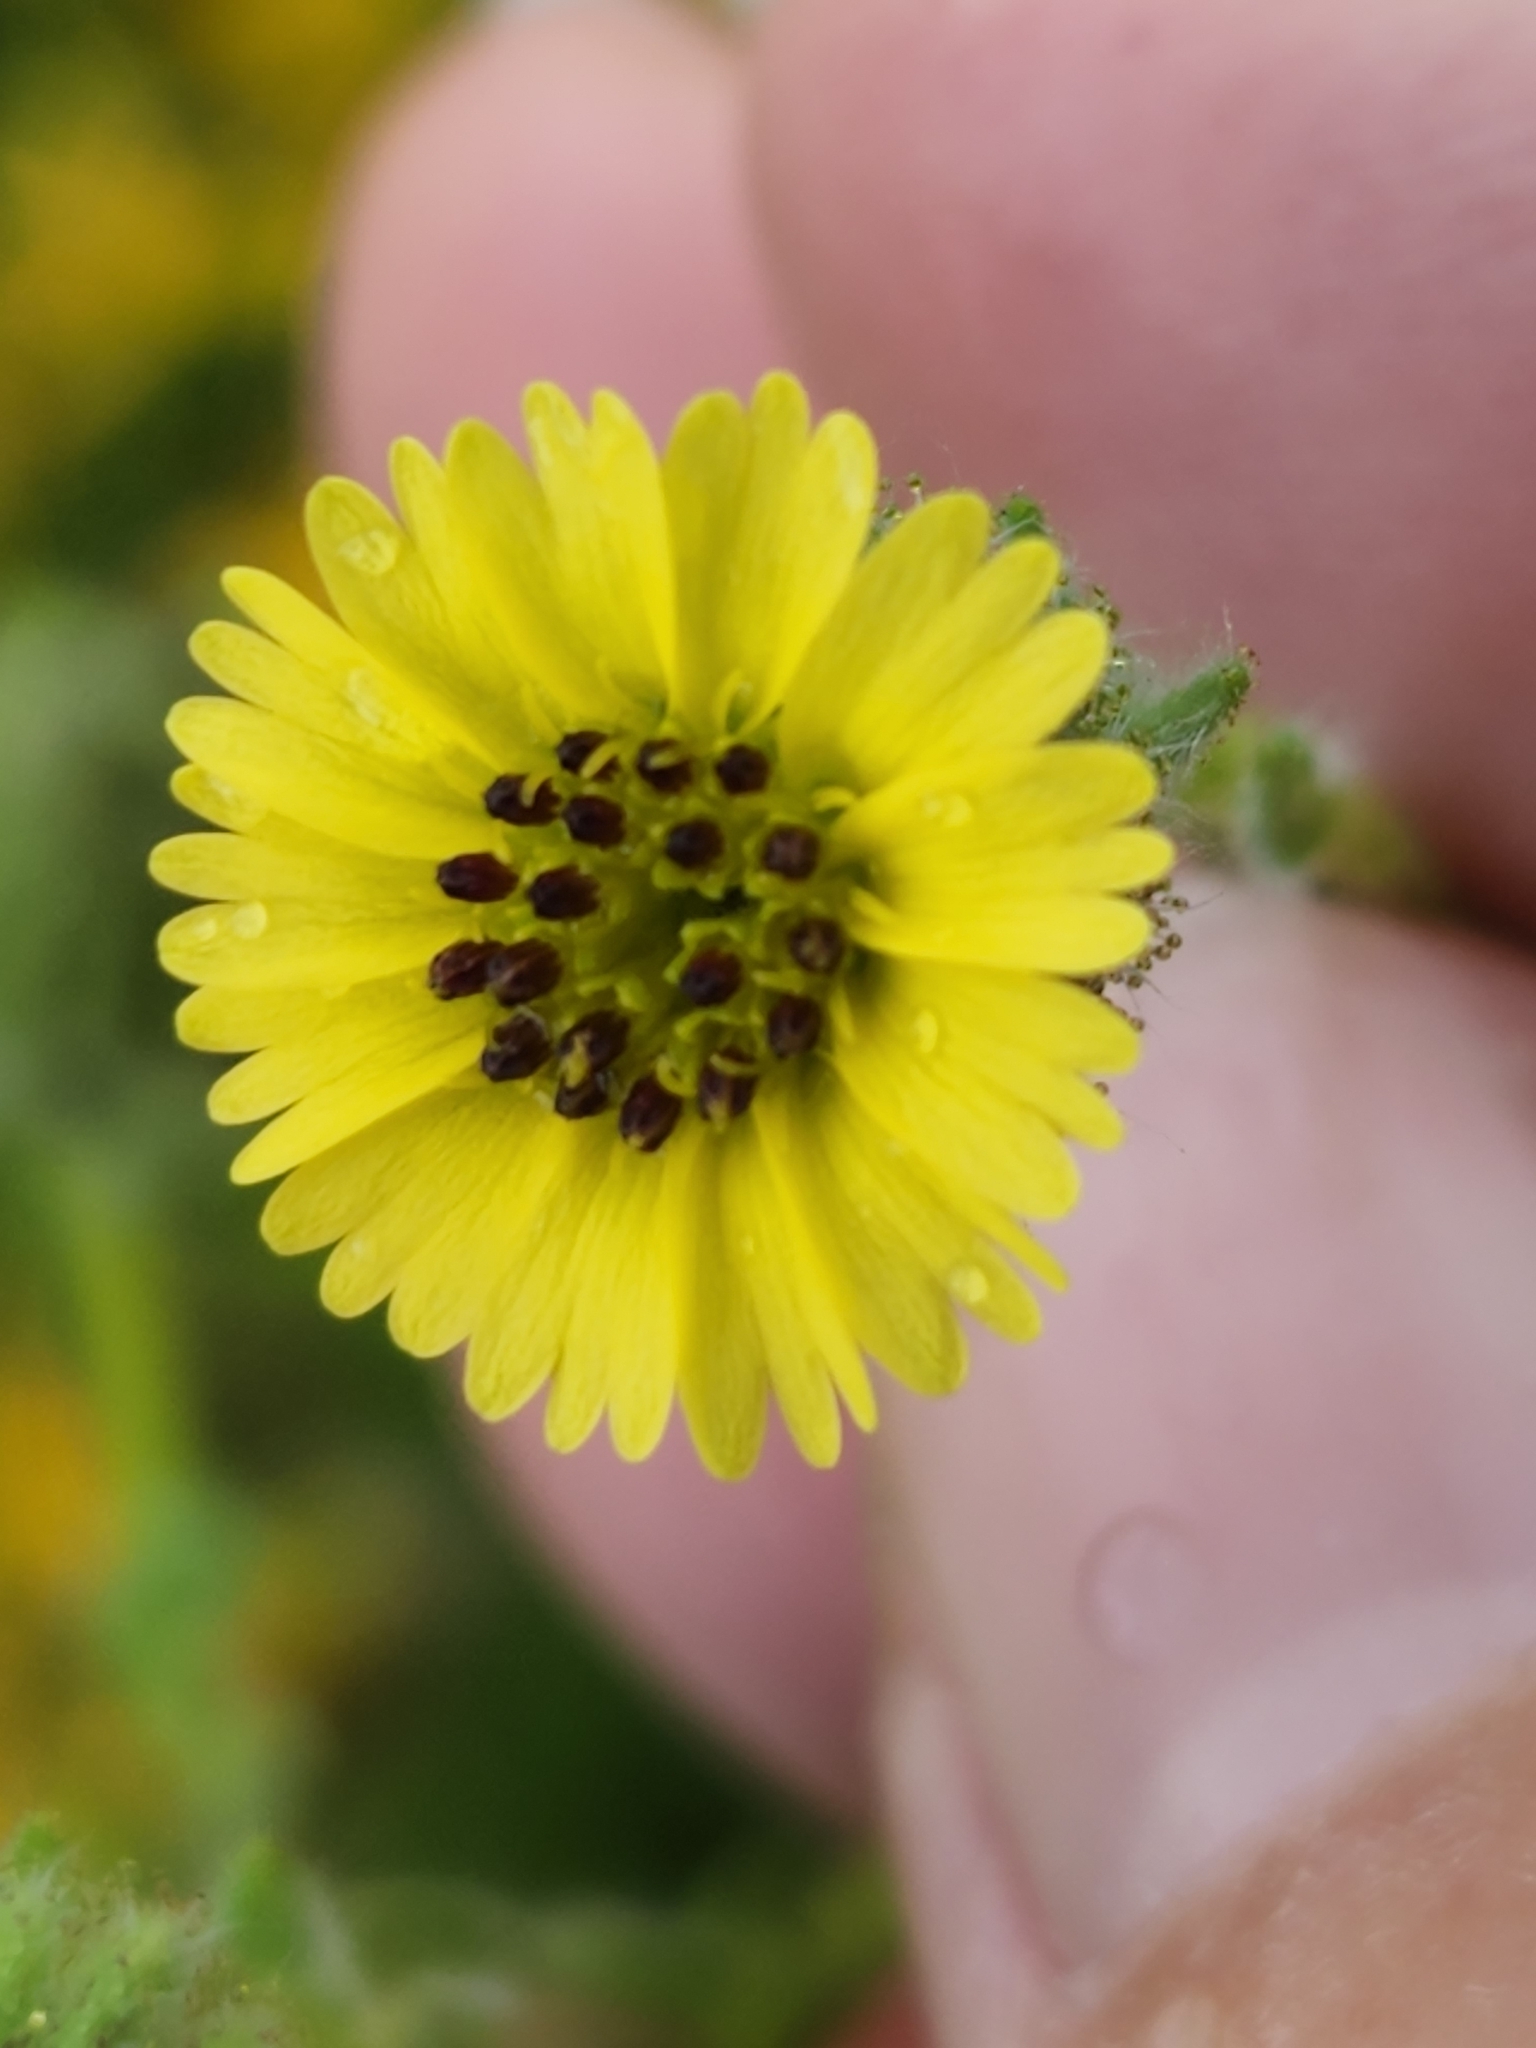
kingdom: Plantae
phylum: Tracheophyta
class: Magnoliopsida
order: Asterales
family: Asteraceae
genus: Madia
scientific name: Madia gracilis
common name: Grassy tarweed
